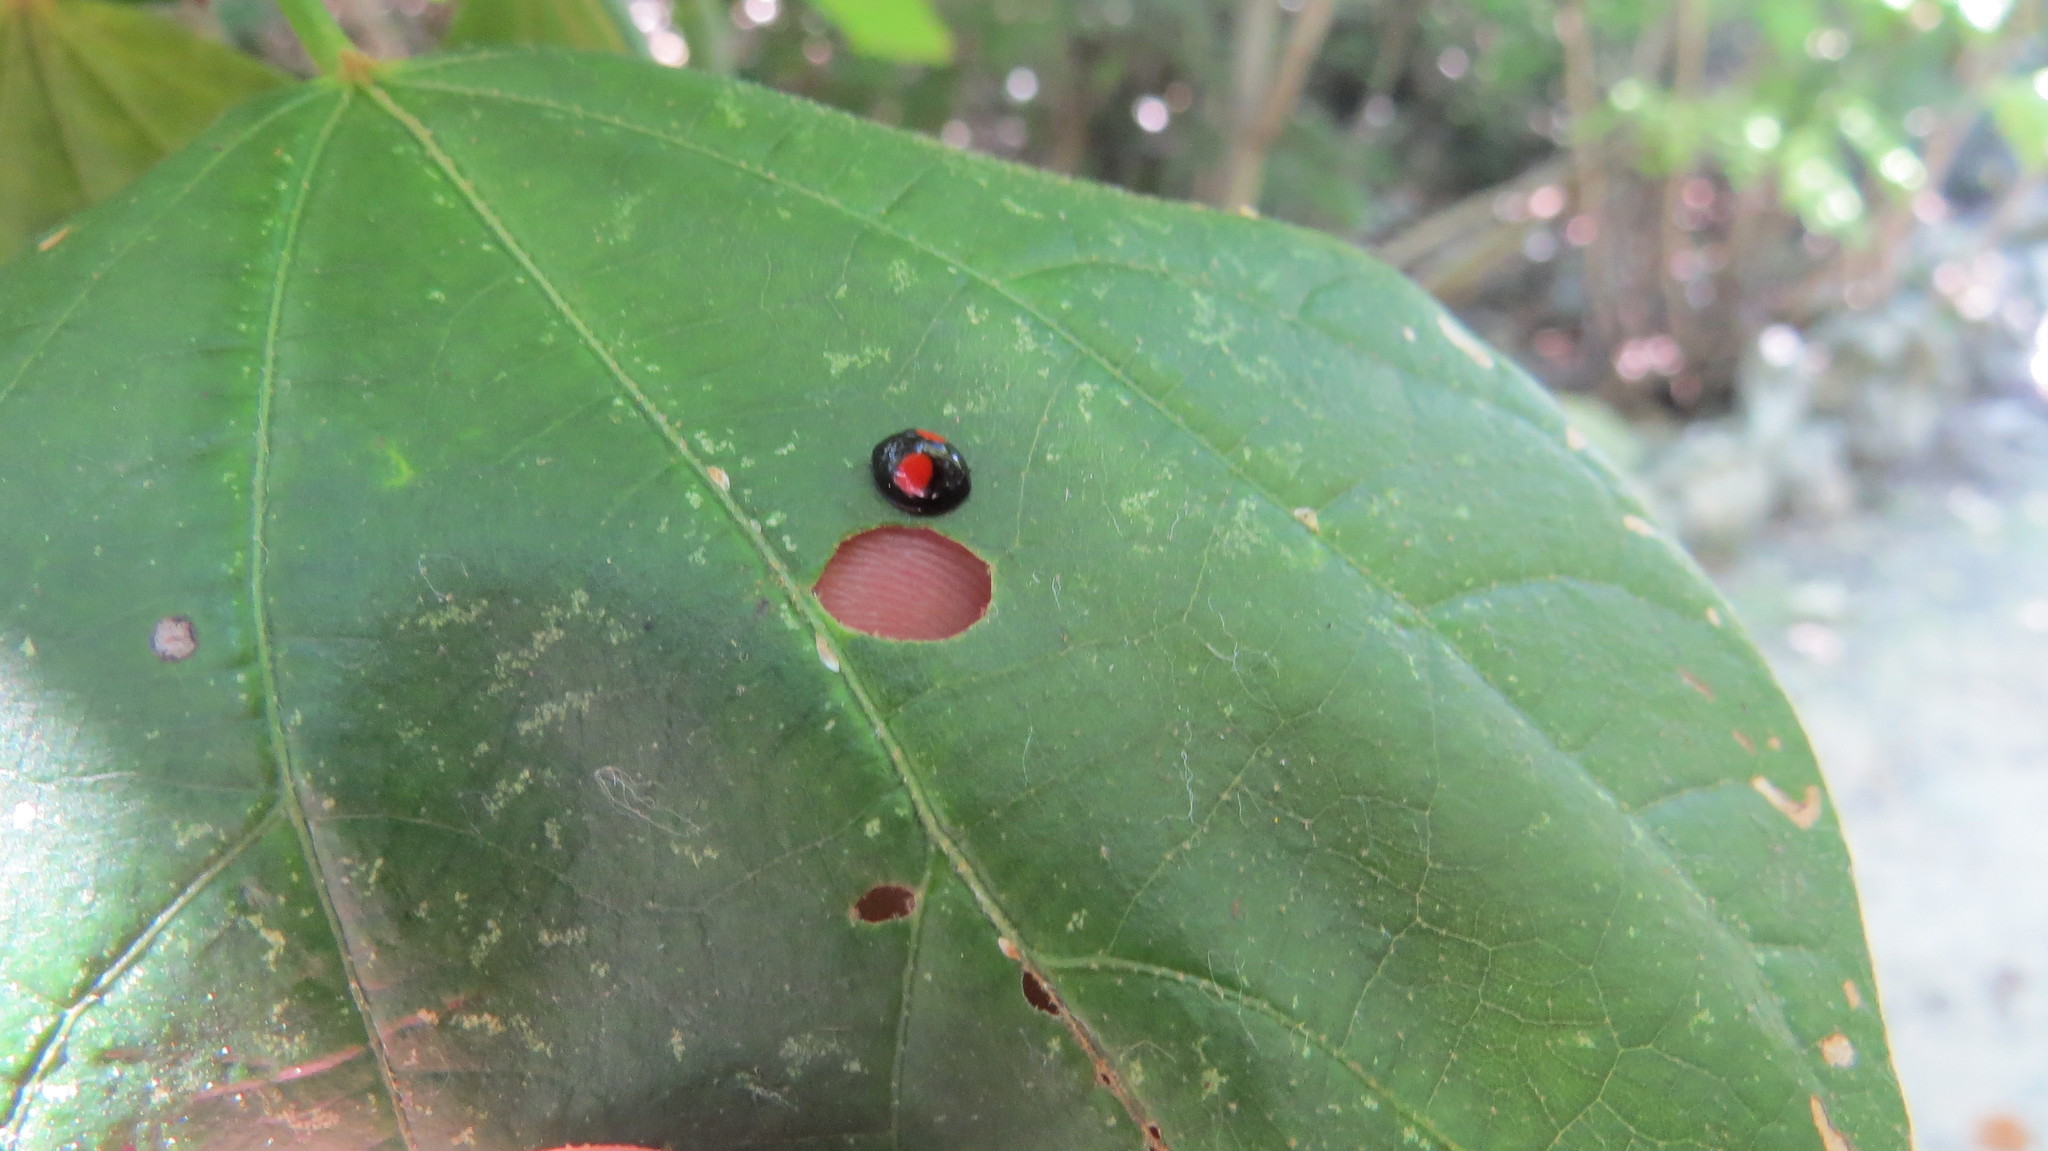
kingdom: Animalia
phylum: Arthropoda
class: Insecta
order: Coleoptera
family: Coccinellidae
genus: Chilocorus
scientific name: Chilocorus cacti
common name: Cactus lady beetle
